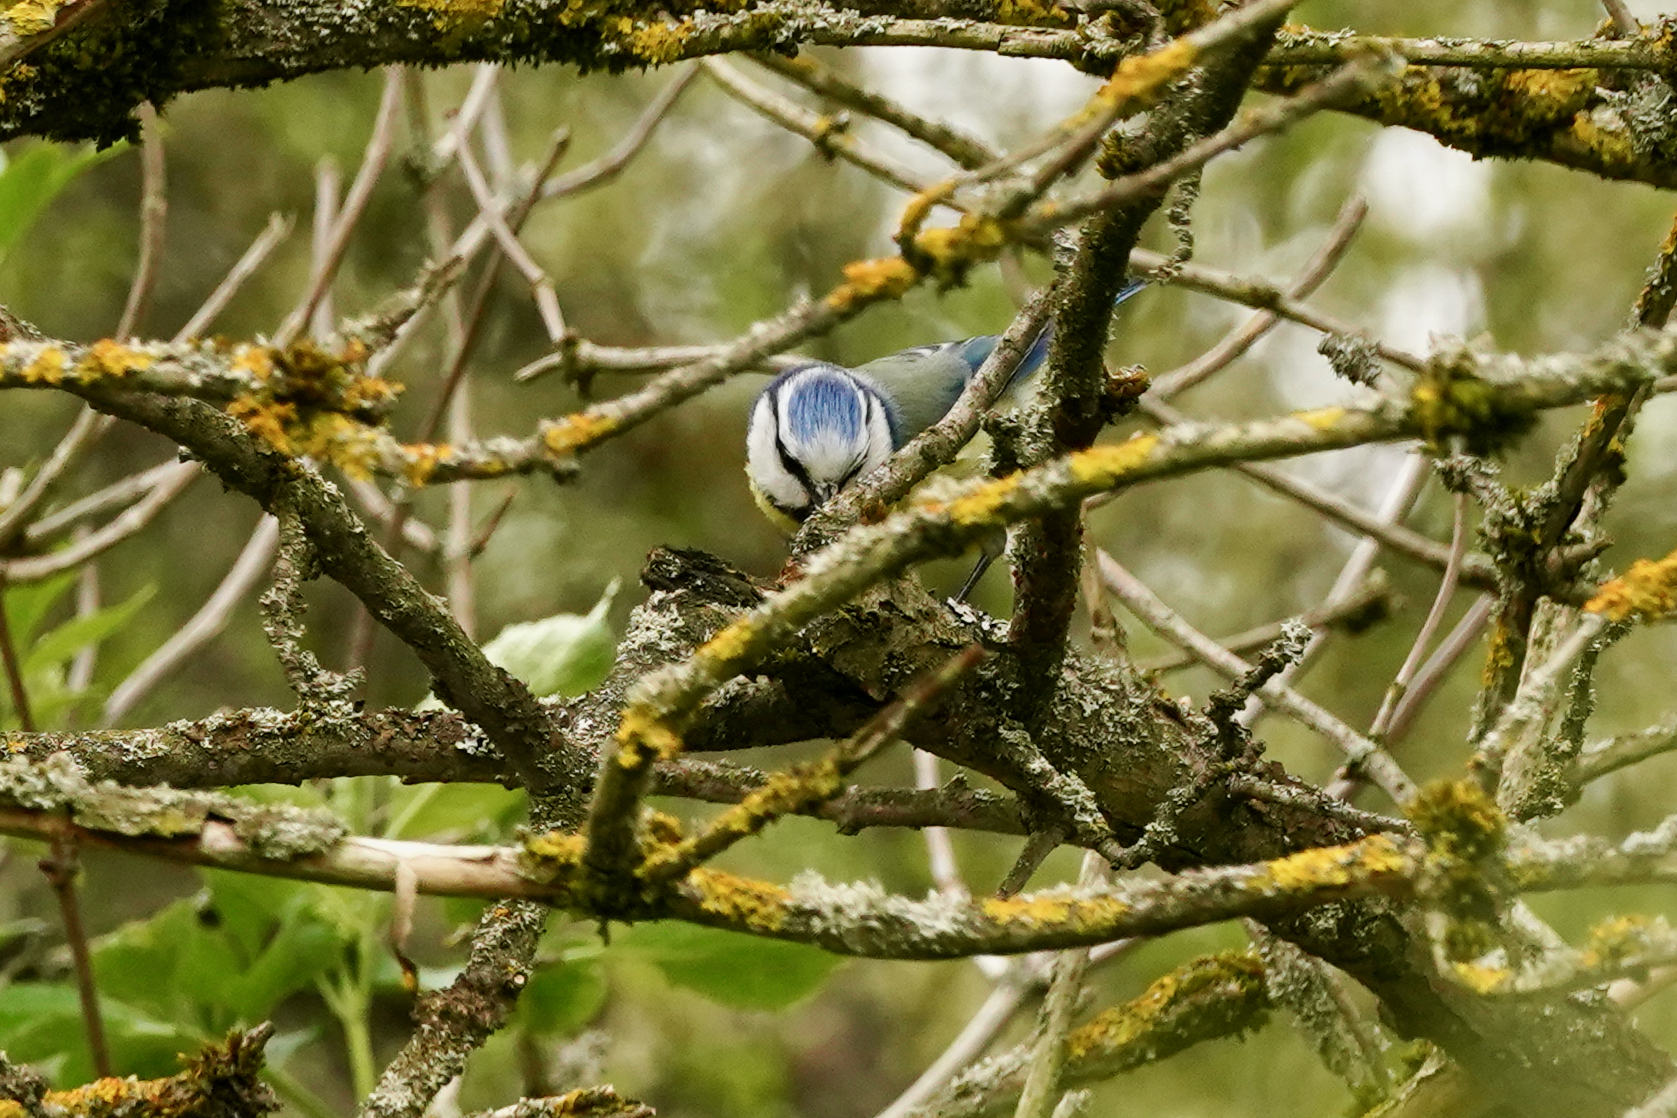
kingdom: Animalia
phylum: Chordata
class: Aves
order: Passeriformes
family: Paridae
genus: Cyanistes
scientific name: Cyanistes caeruleus
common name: Eurasian blue tit
